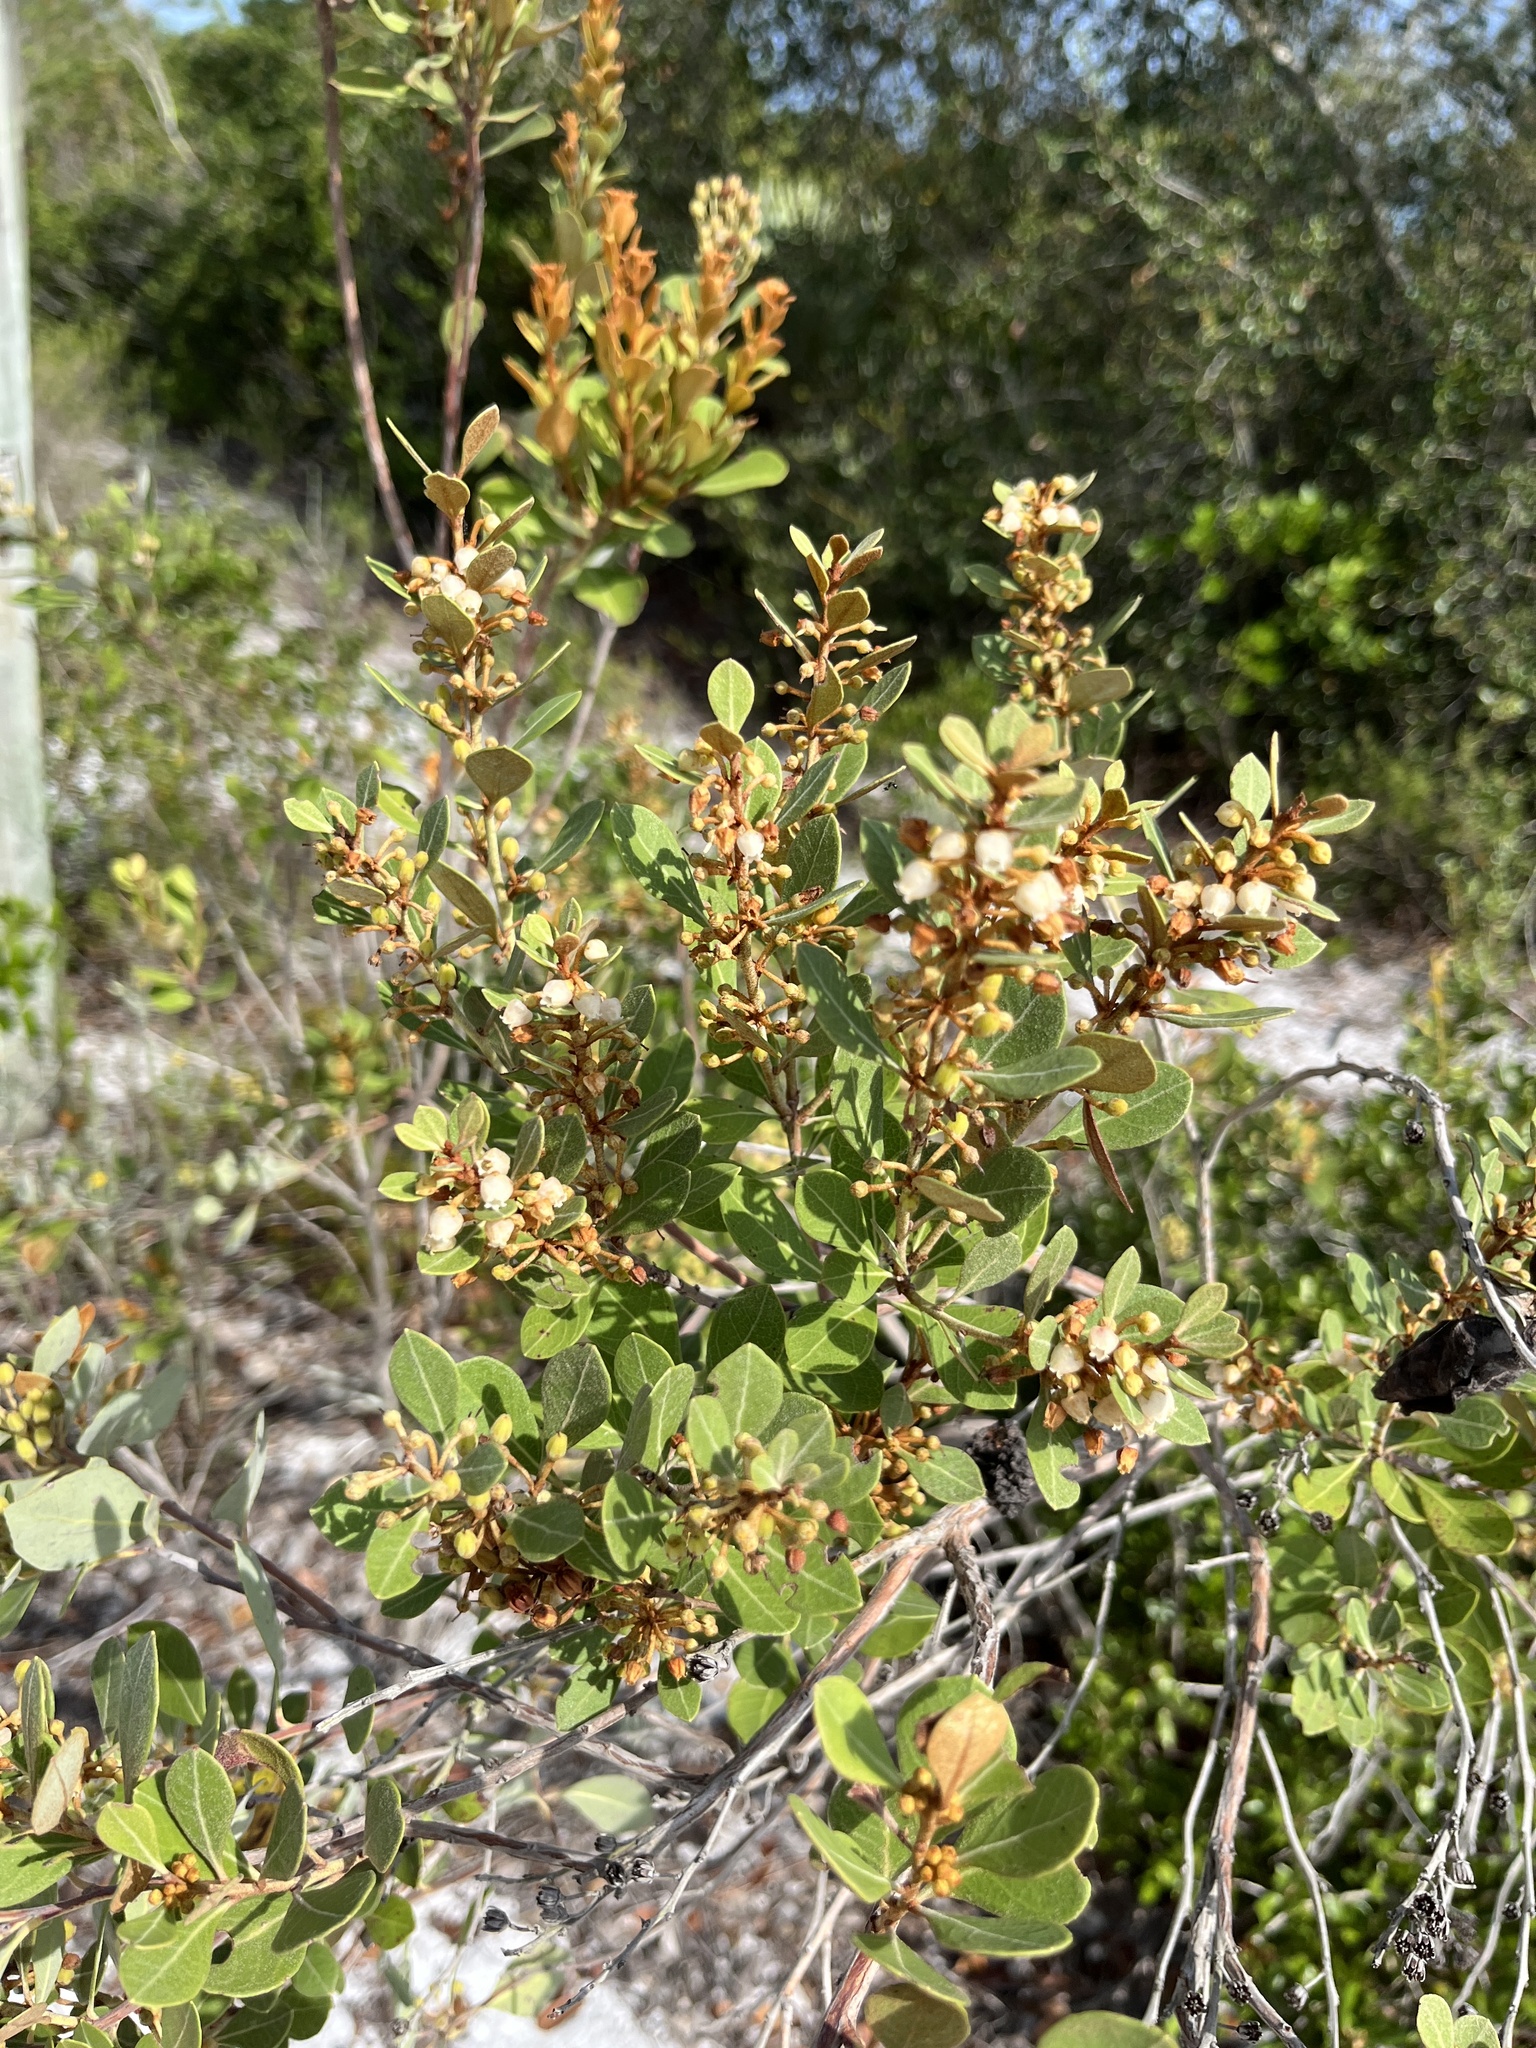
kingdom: Plantae
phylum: Tracheophyta
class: Magnoliopsida
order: Ericales
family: Ericaceae
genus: Lyonia
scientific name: Lyonia fruticosa
